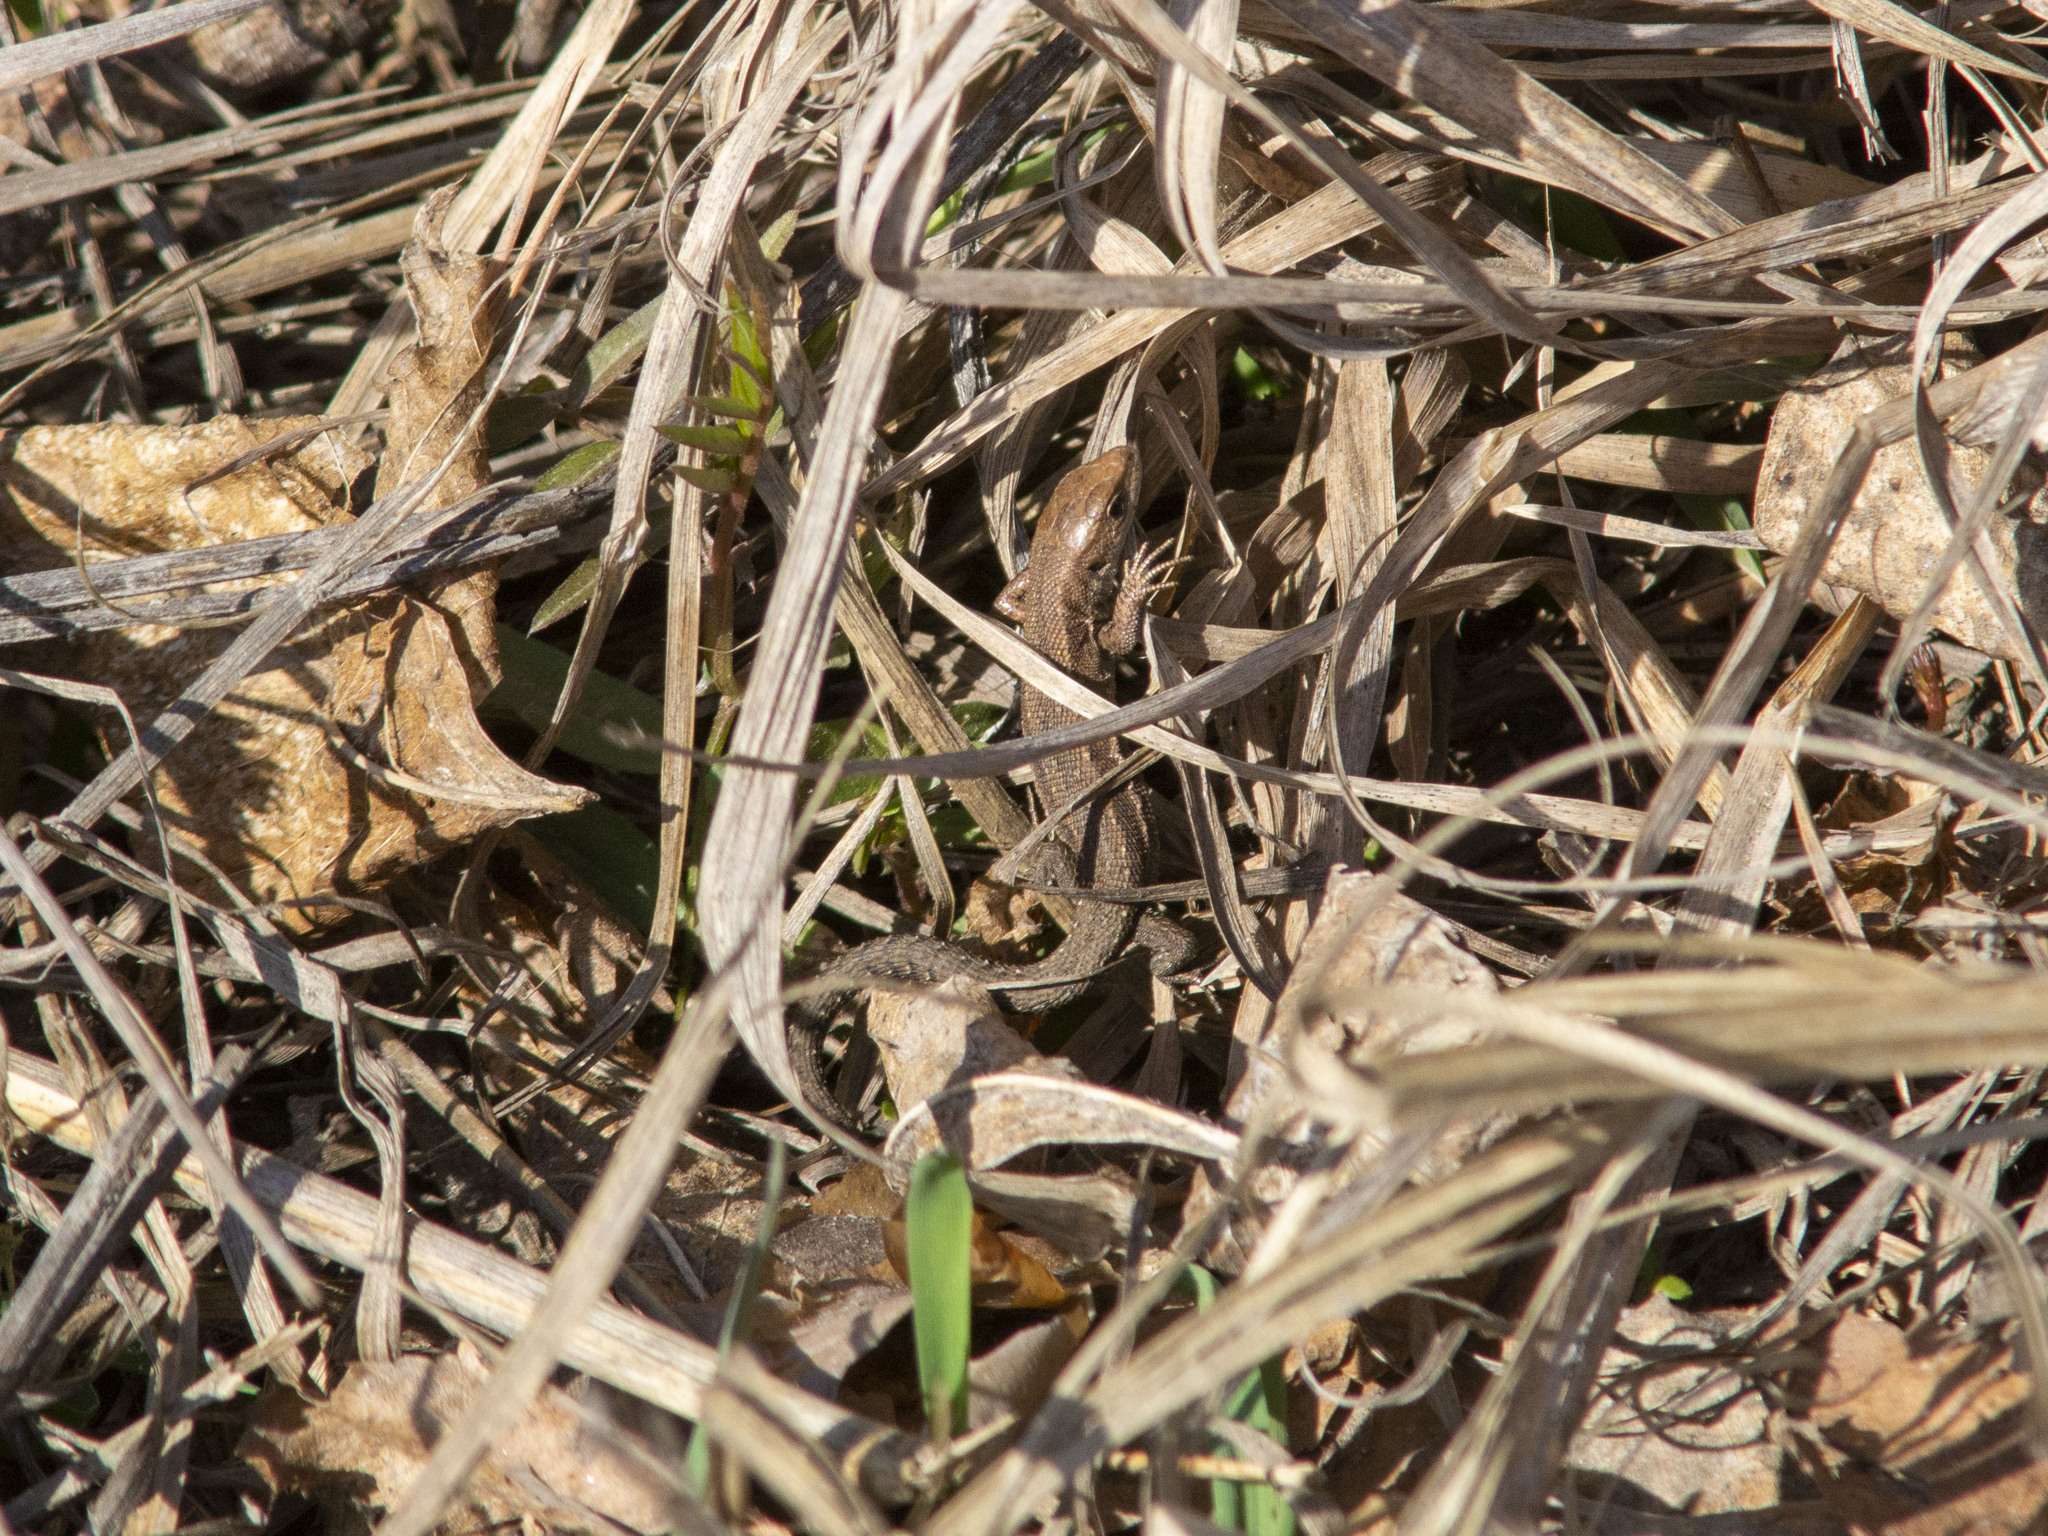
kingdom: Animalia
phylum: Chordata
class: Squamata
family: Lacertidae
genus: Zootoca
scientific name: Zootoca vivipara
